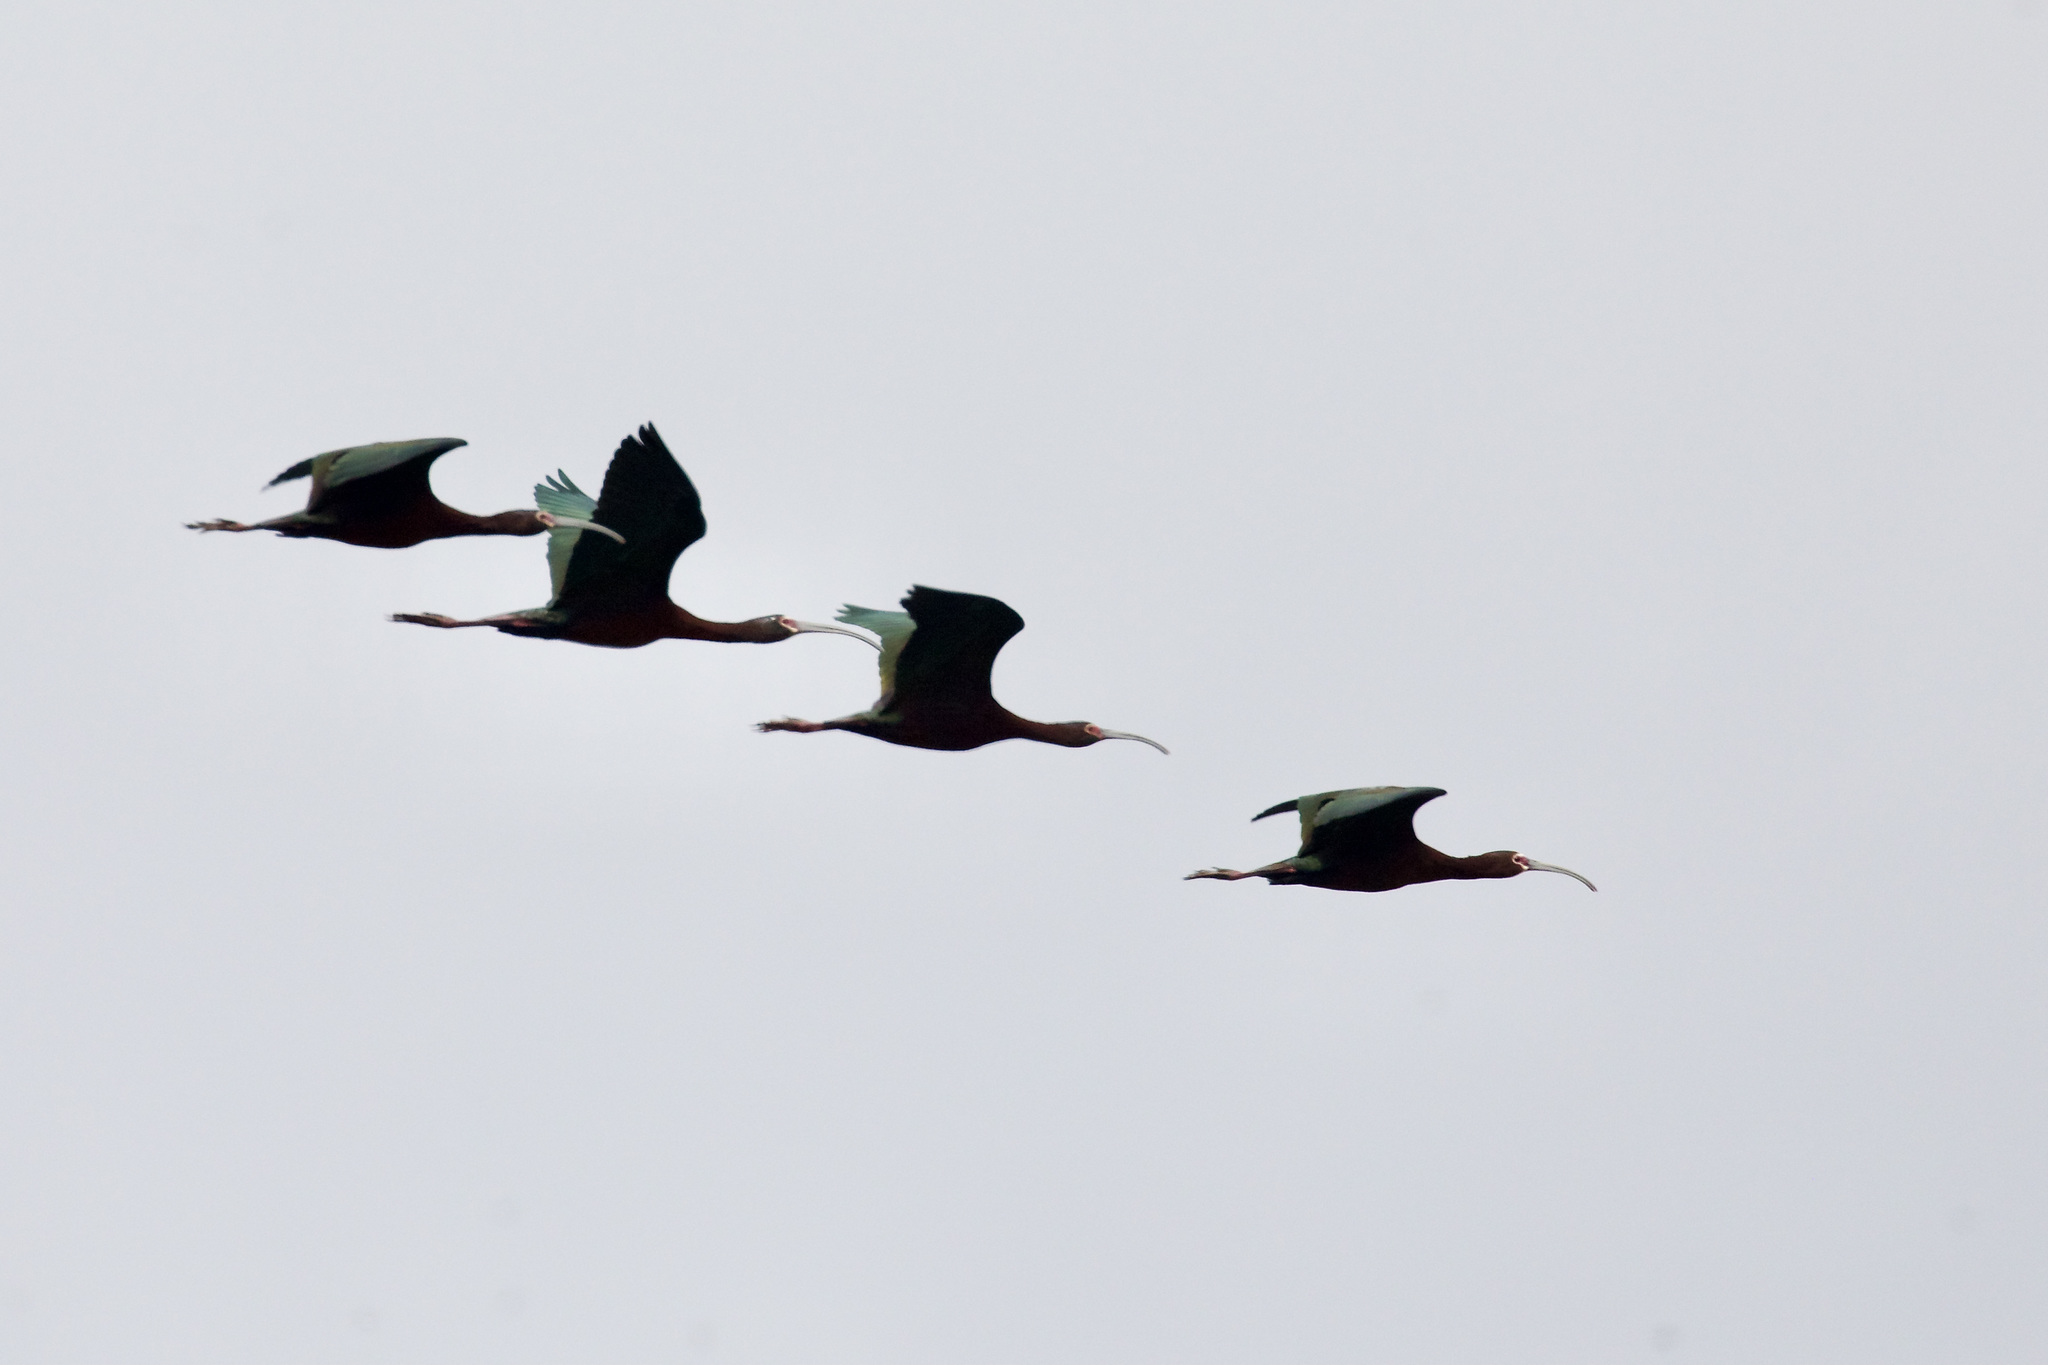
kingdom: Animalia
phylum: Chordata
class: Aves
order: Pelecaniformes
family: Threskiornithidae
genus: Plegadis
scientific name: Plegadis chihi
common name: White-faced ibis
